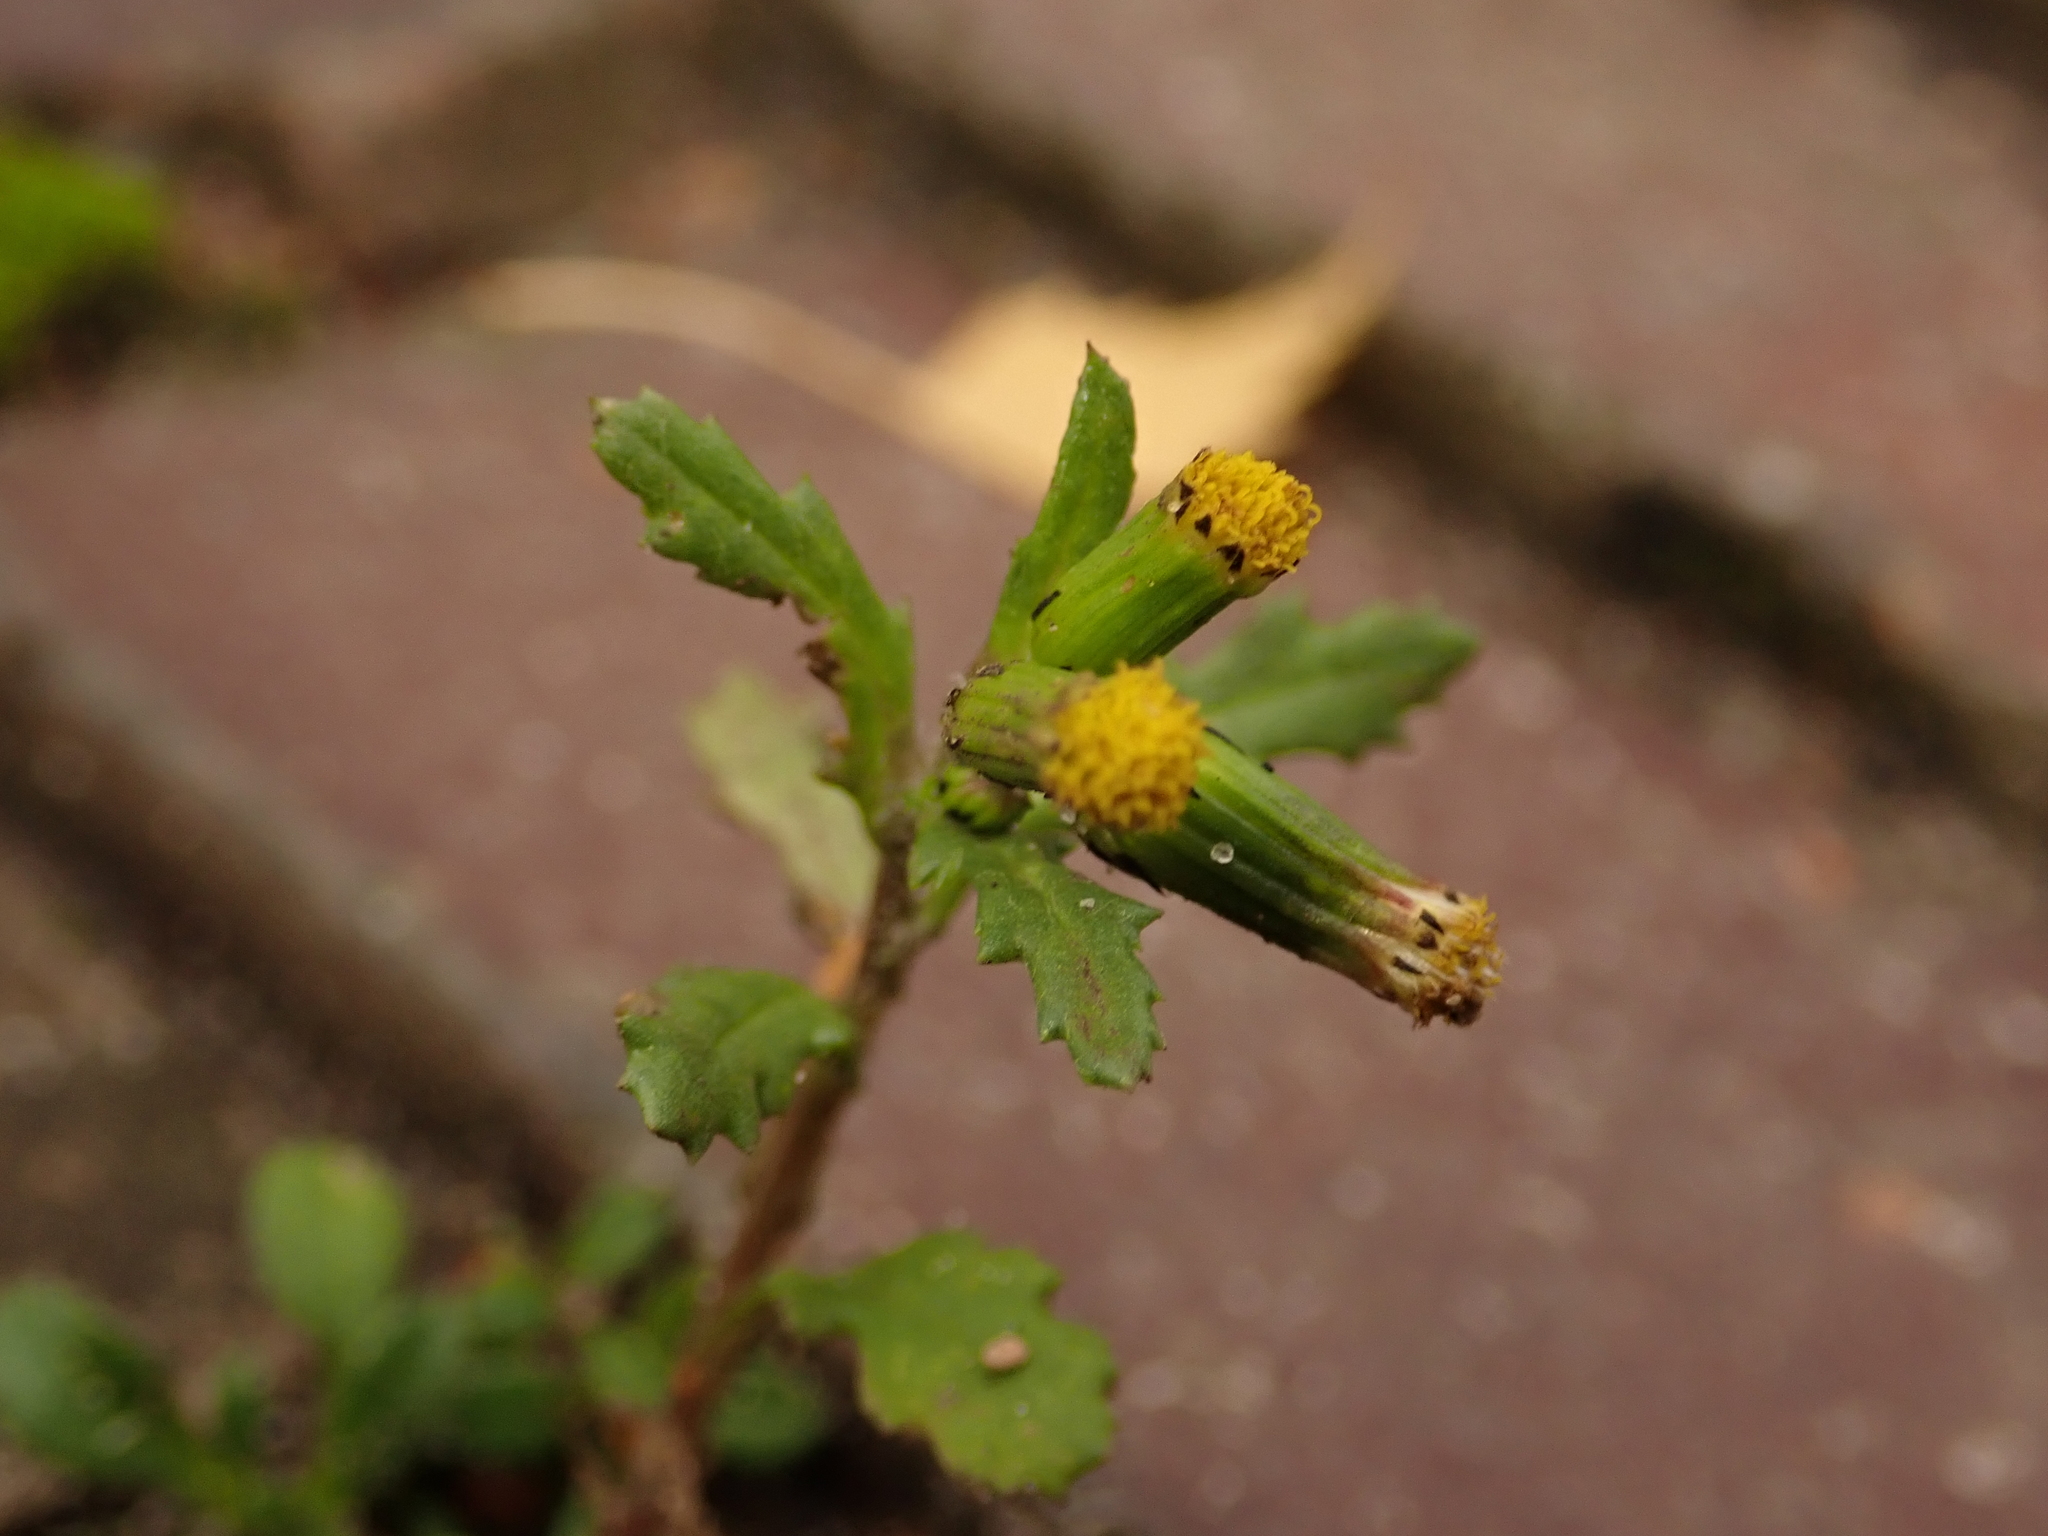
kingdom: Plantae
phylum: Tracheophyta
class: Magnoliopsida
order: Asterales
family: Asteraceae
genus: Senecio
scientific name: Senecio vulgaris
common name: Old-man-in-the-spring
